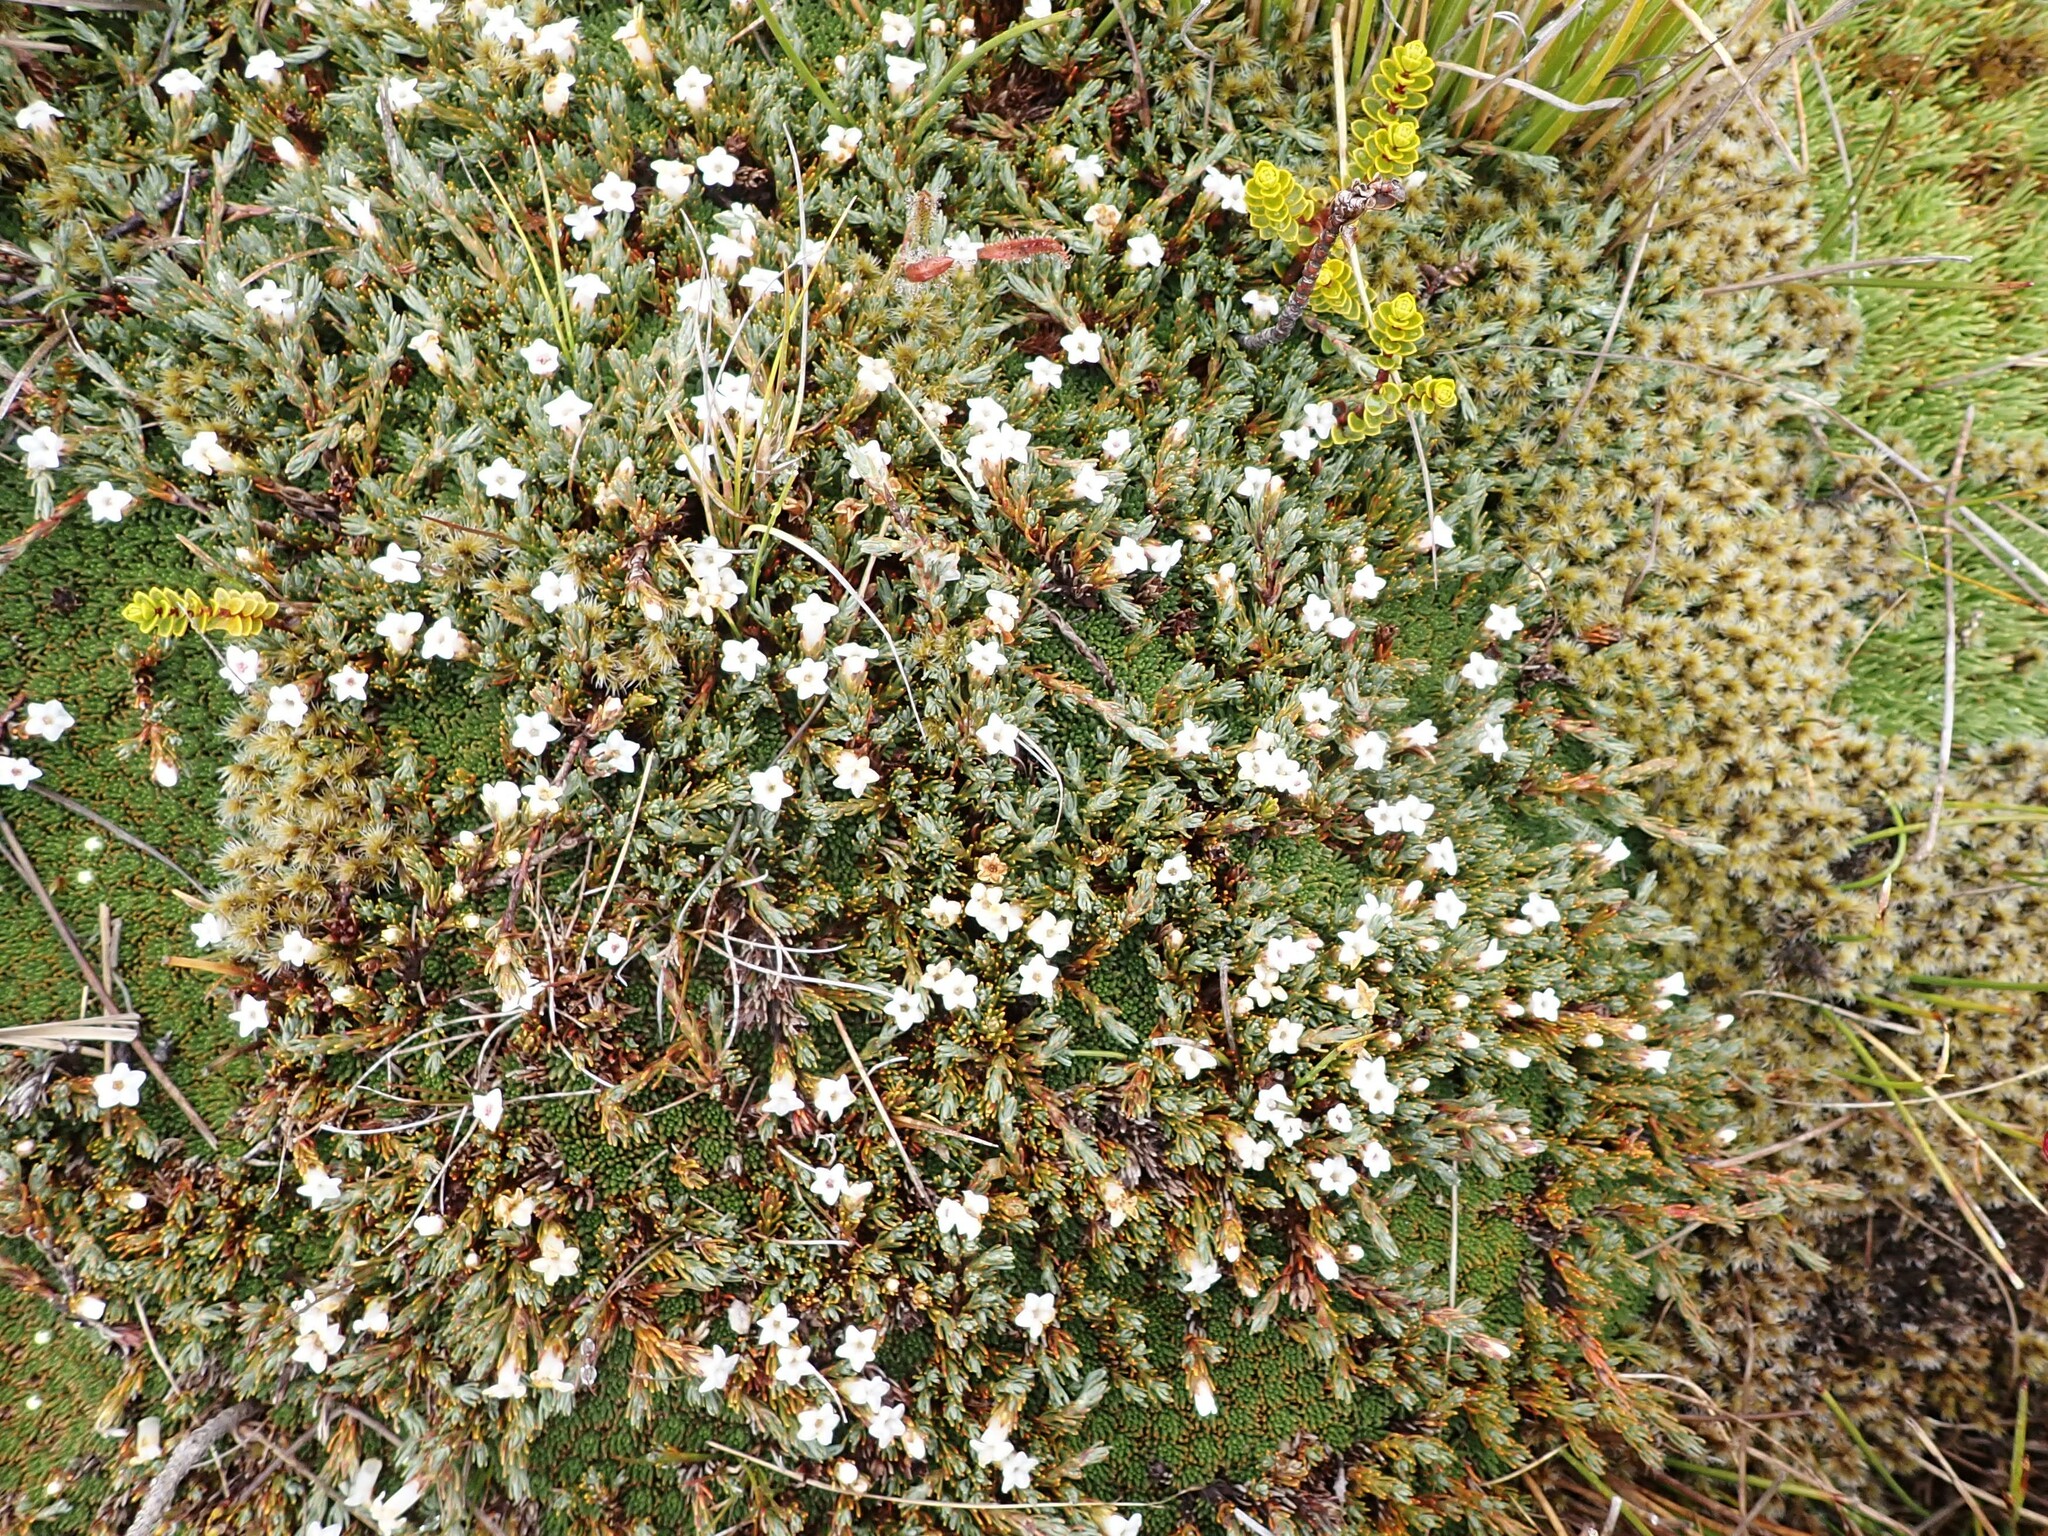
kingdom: Plantae
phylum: Tracheophyta
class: Magnoliopsida
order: Ericales
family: Ericaceae
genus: Dracophyllum
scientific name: Dracophyllum prostratum
